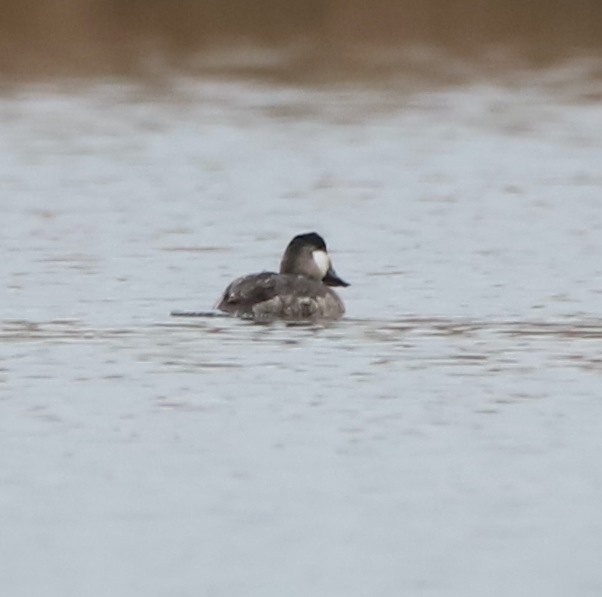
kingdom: Animalia
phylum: Chordata
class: Aves
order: Anseriformes
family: Anatidae
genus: Oxyura
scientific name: Oxyura jamaicensis
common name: Ruddy duck
